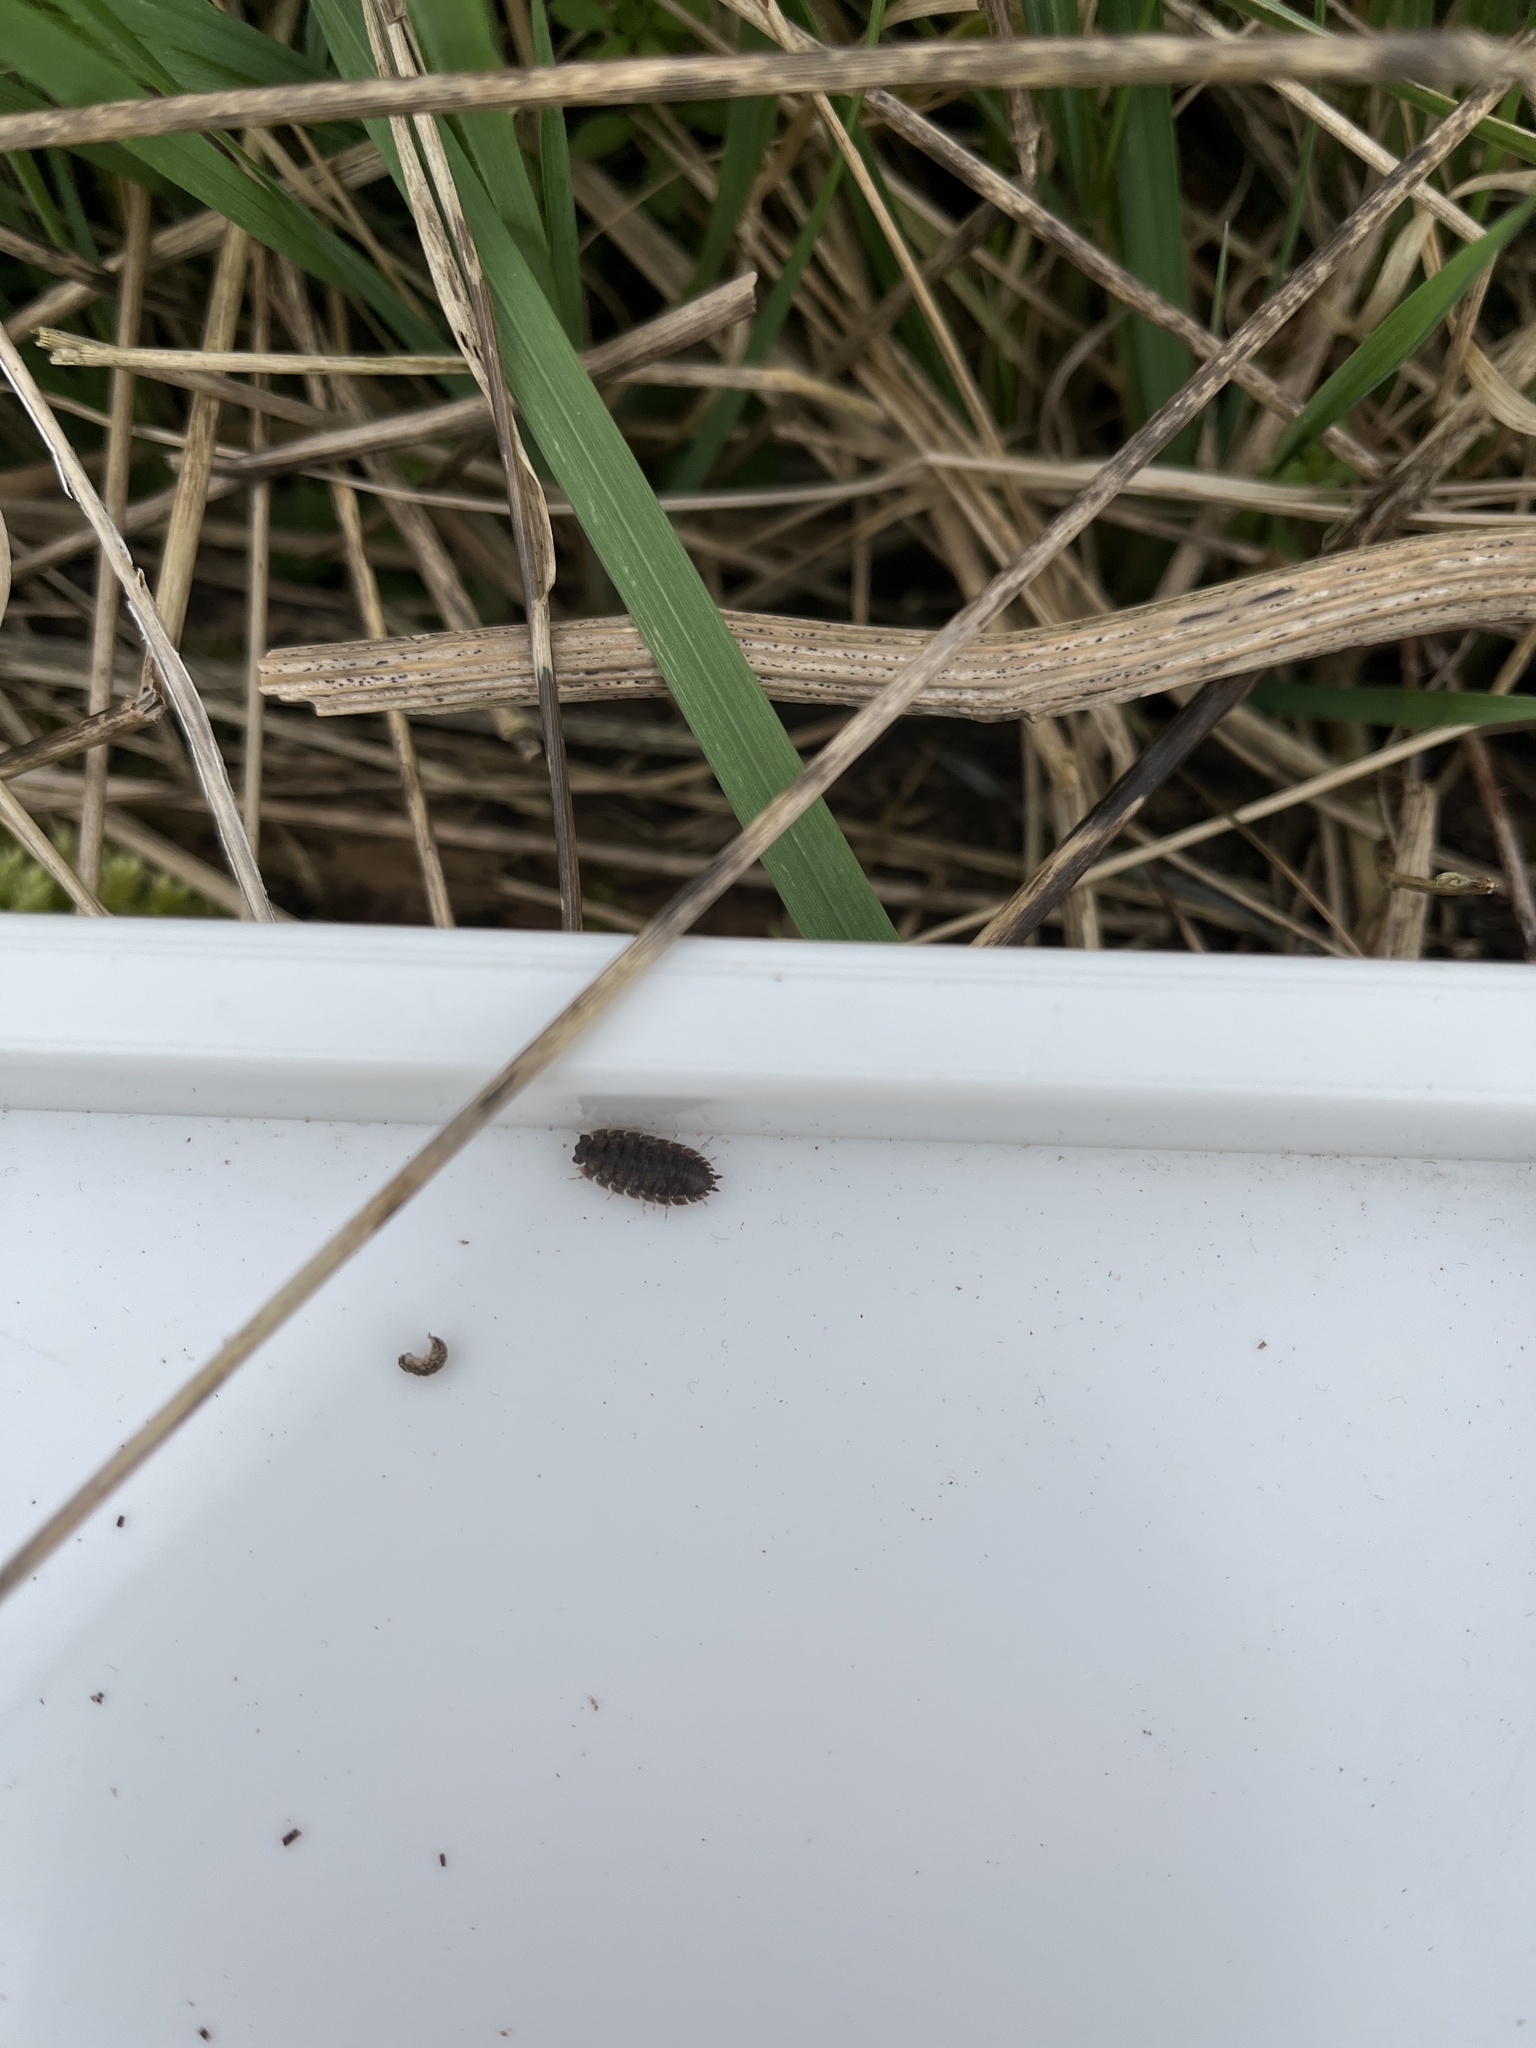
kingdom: Animalia
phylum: Arthropoda
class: Malacostraca
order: Isopoda
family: Porcellionidae
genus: Porcellio
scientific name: Porcellio scaber
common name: Common rough woodlouse
